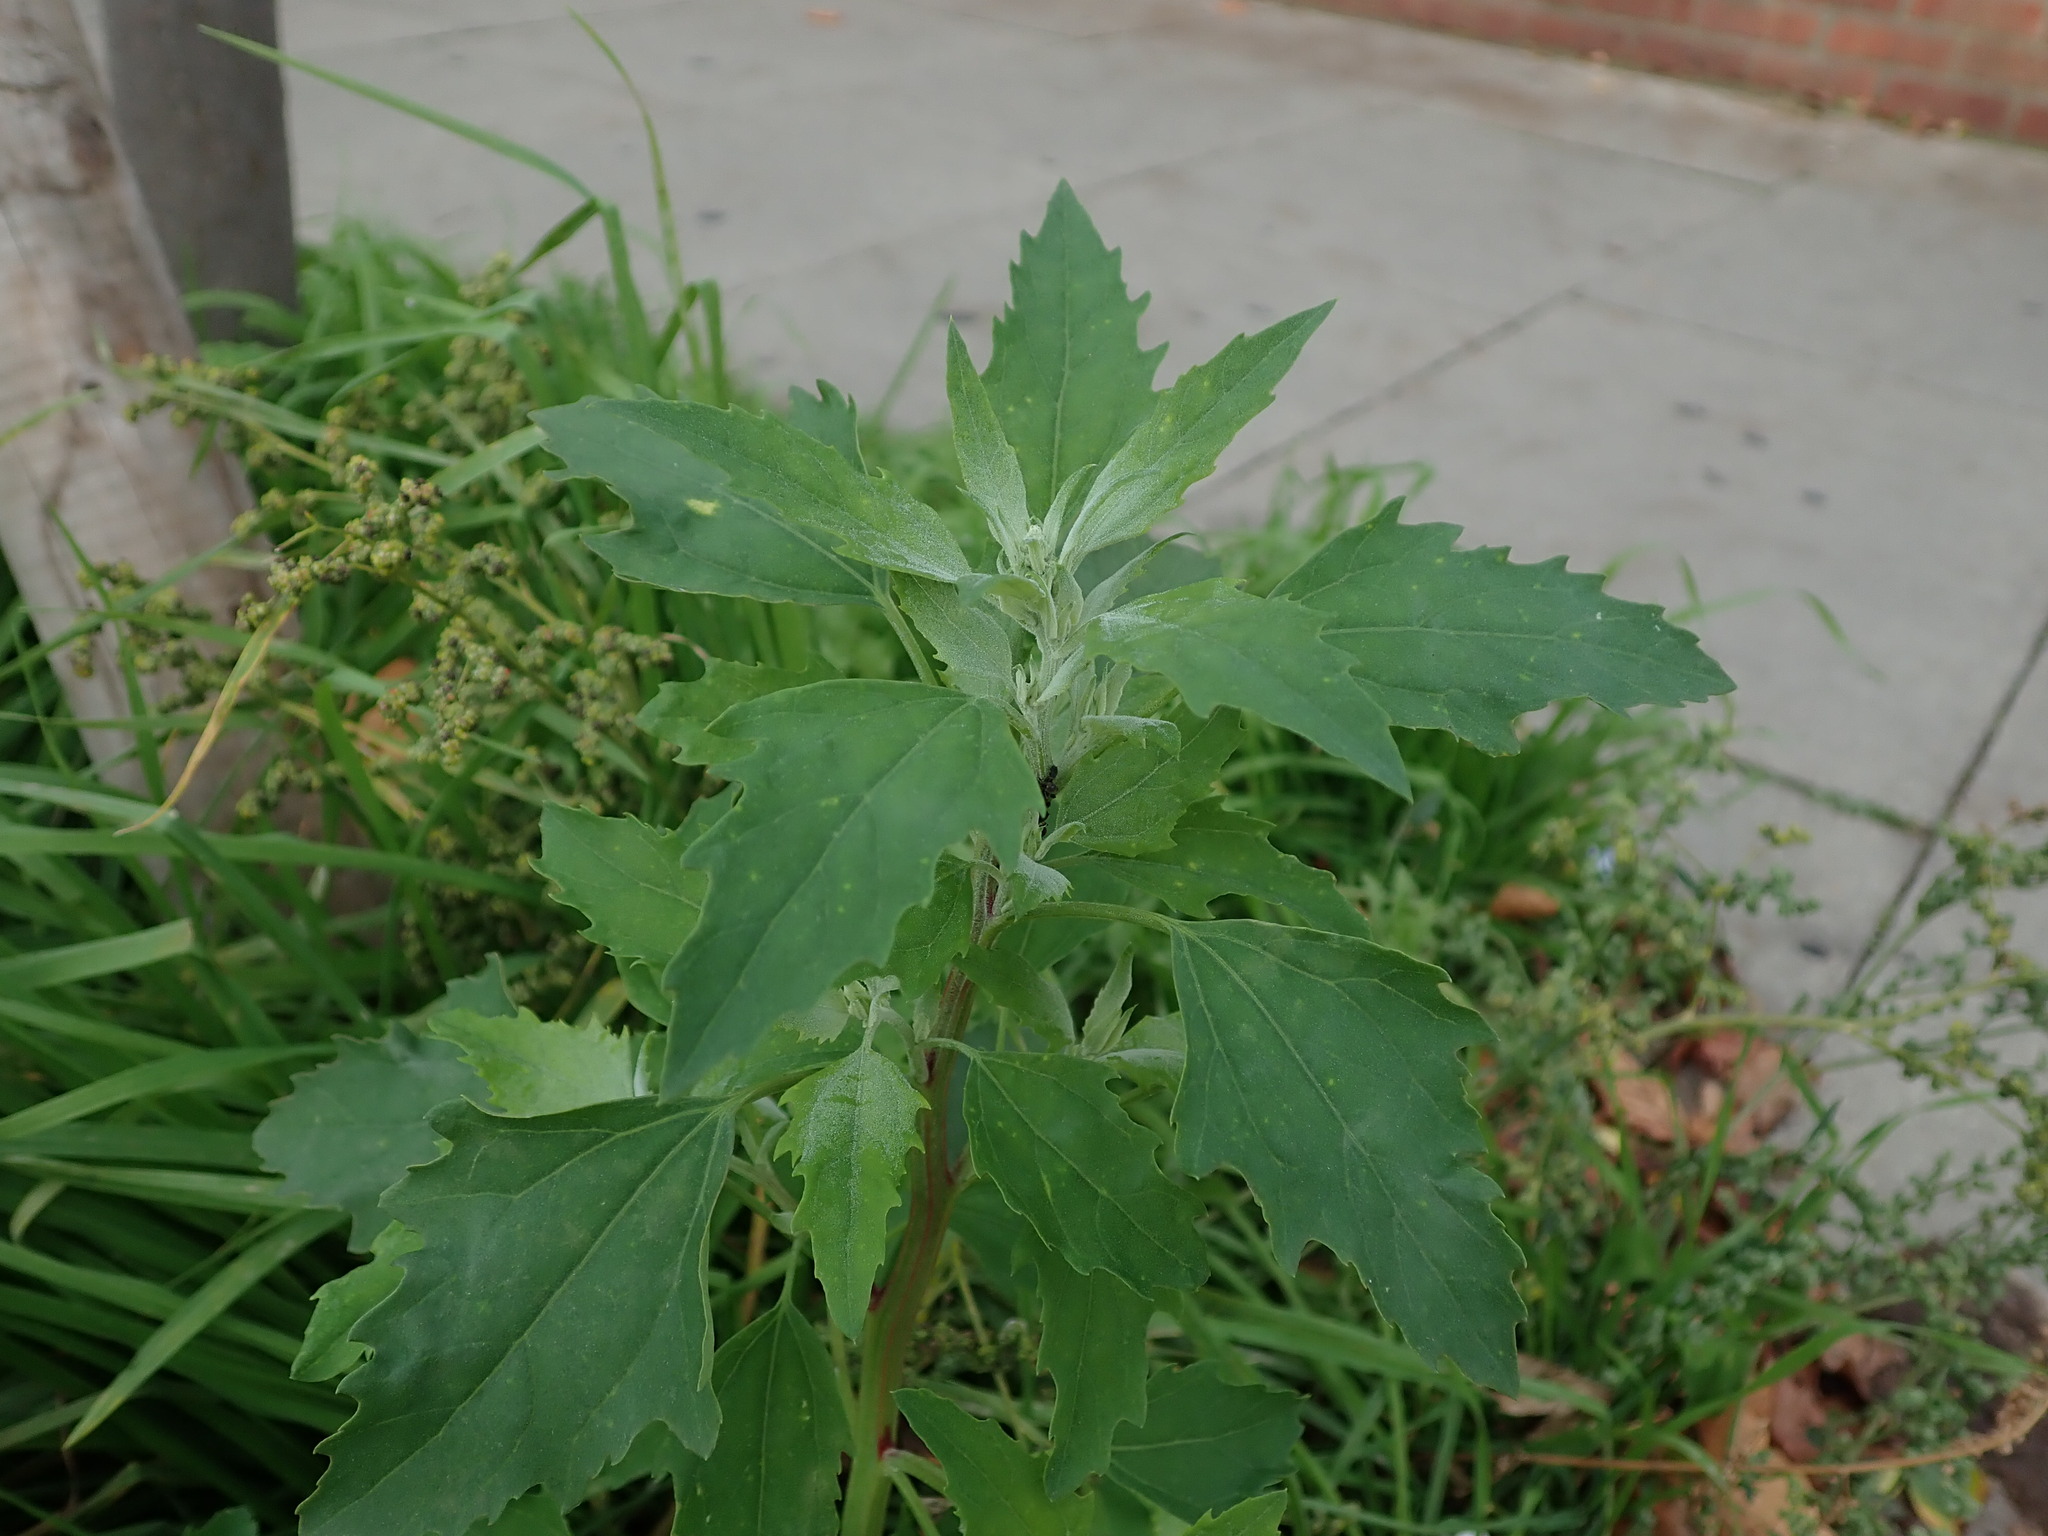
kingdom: Plantae
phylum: Tracheophyta
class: Magnoliopsida
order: Caryophyllales
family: Amaranthaceae
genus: Chenopodium
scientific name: Chenopodium album
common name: Fat-hen
